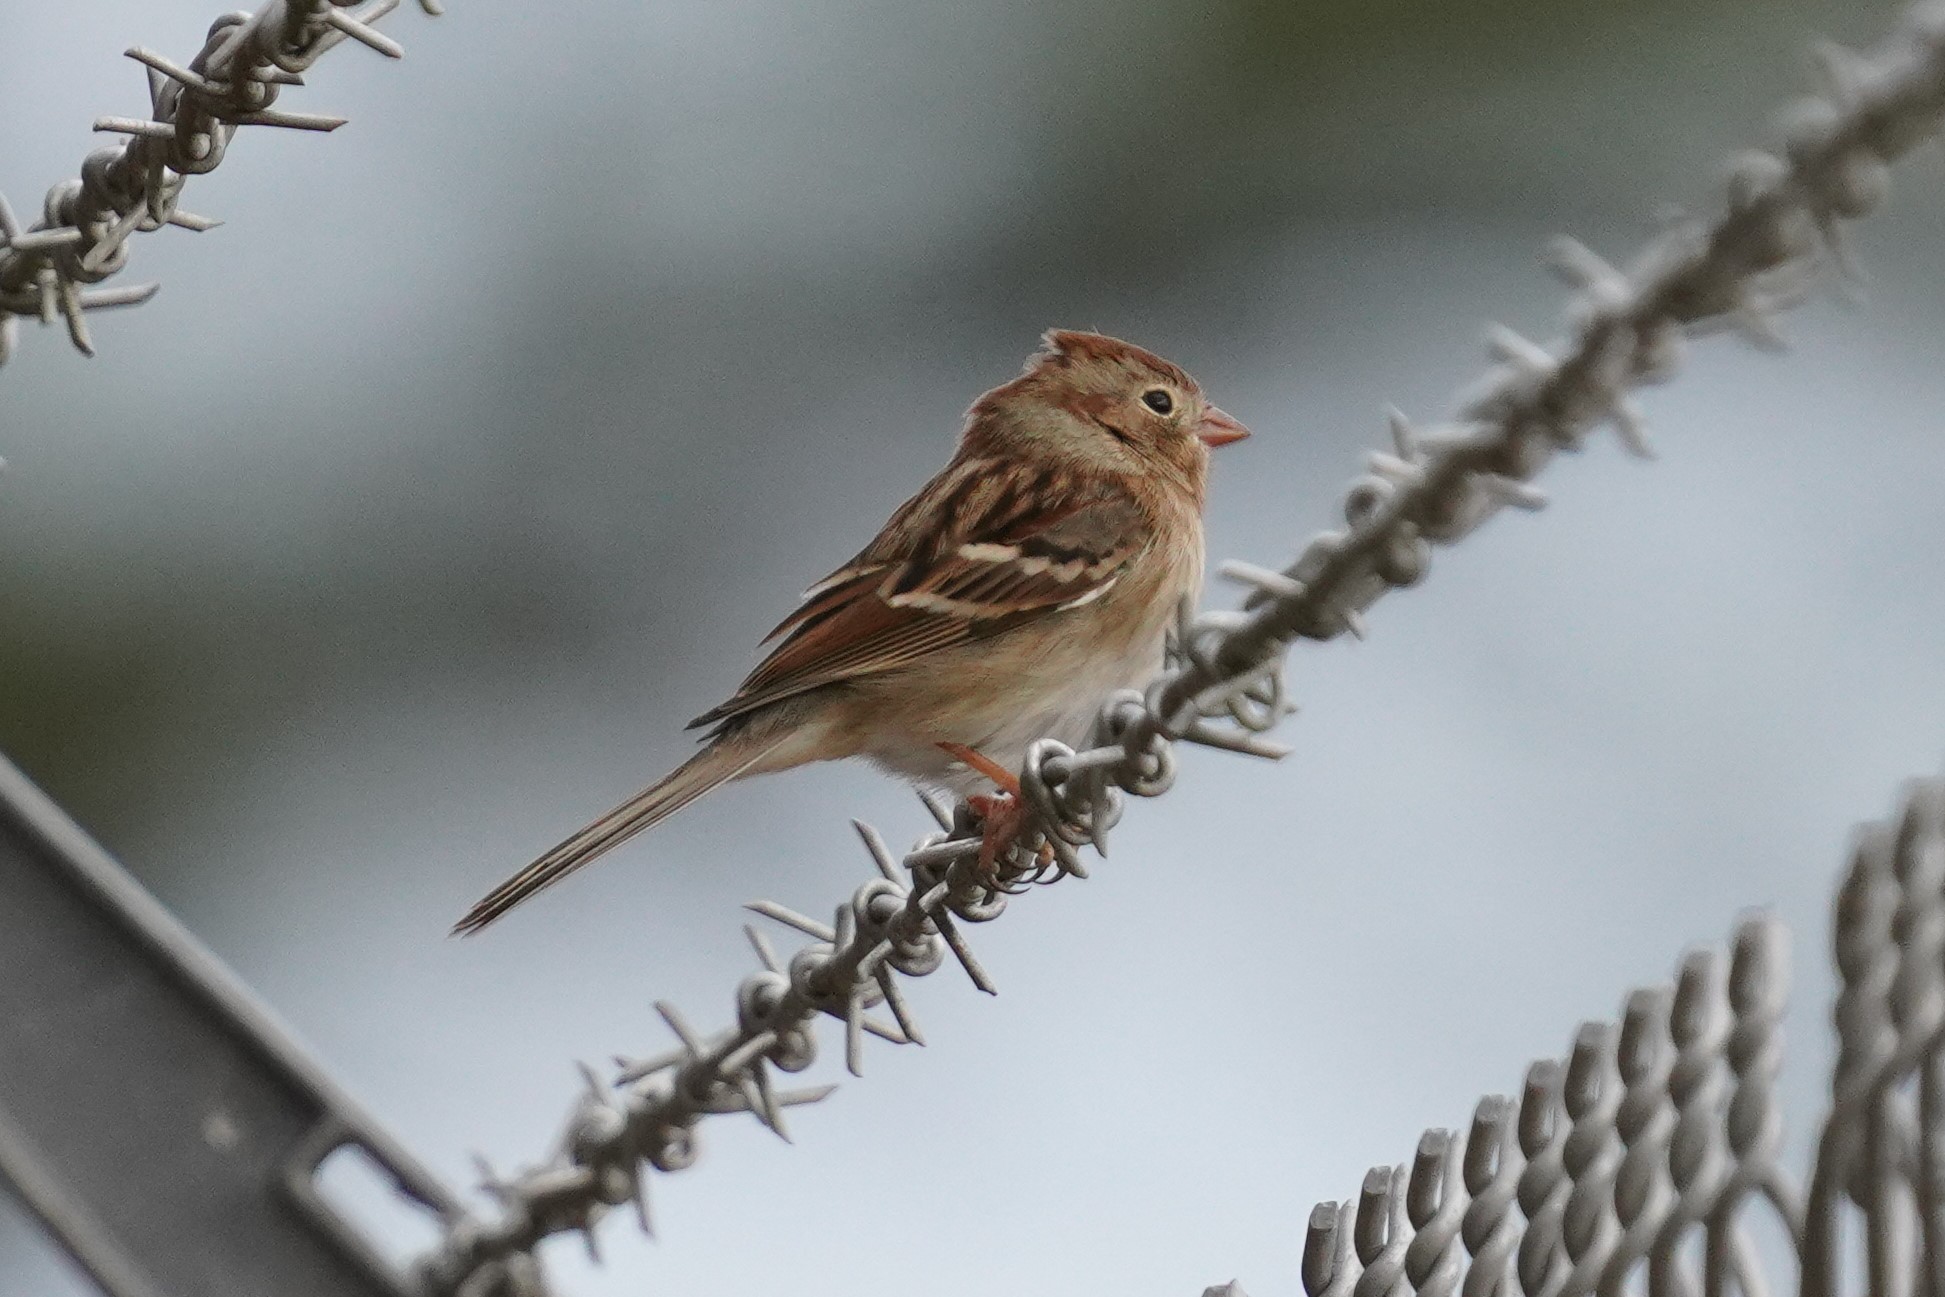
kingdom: Animalia
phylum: Chordata
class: Aves
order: Passeriformes
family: Passerellidae
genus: Spizella
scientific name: Spizella pusilla
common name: Field sparrow
